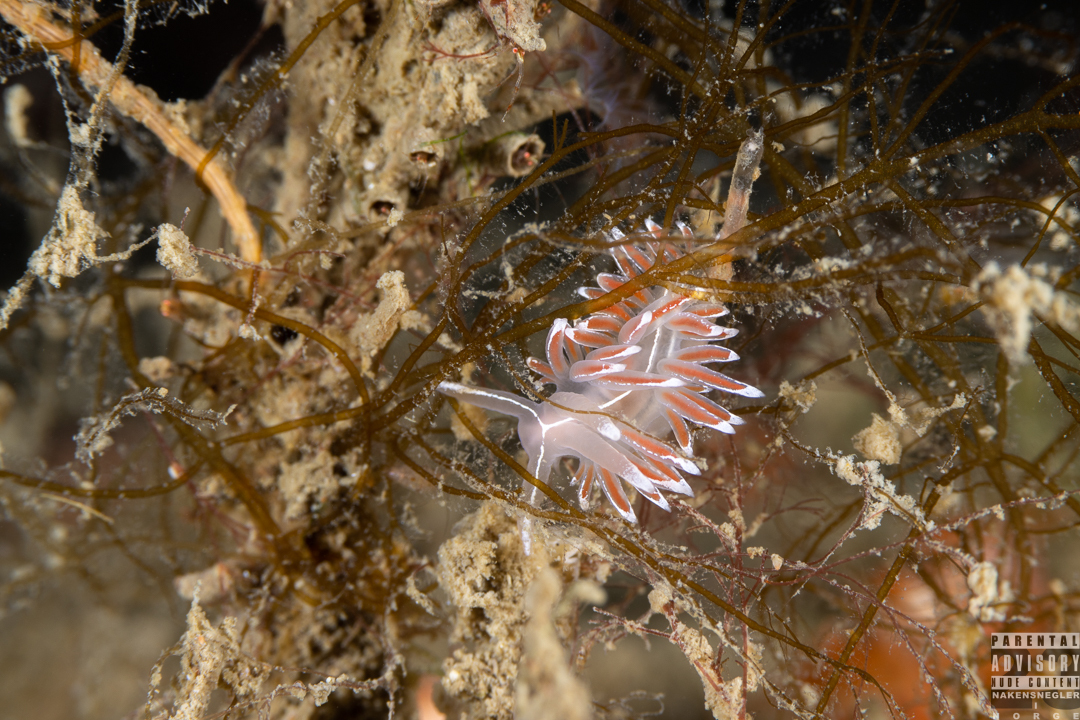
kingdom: Animalia
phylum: Mollusca
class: Gastropoda
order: Nudibranchia
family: Coryphellidae
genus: Coryphella
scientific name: Coryphella lineata
